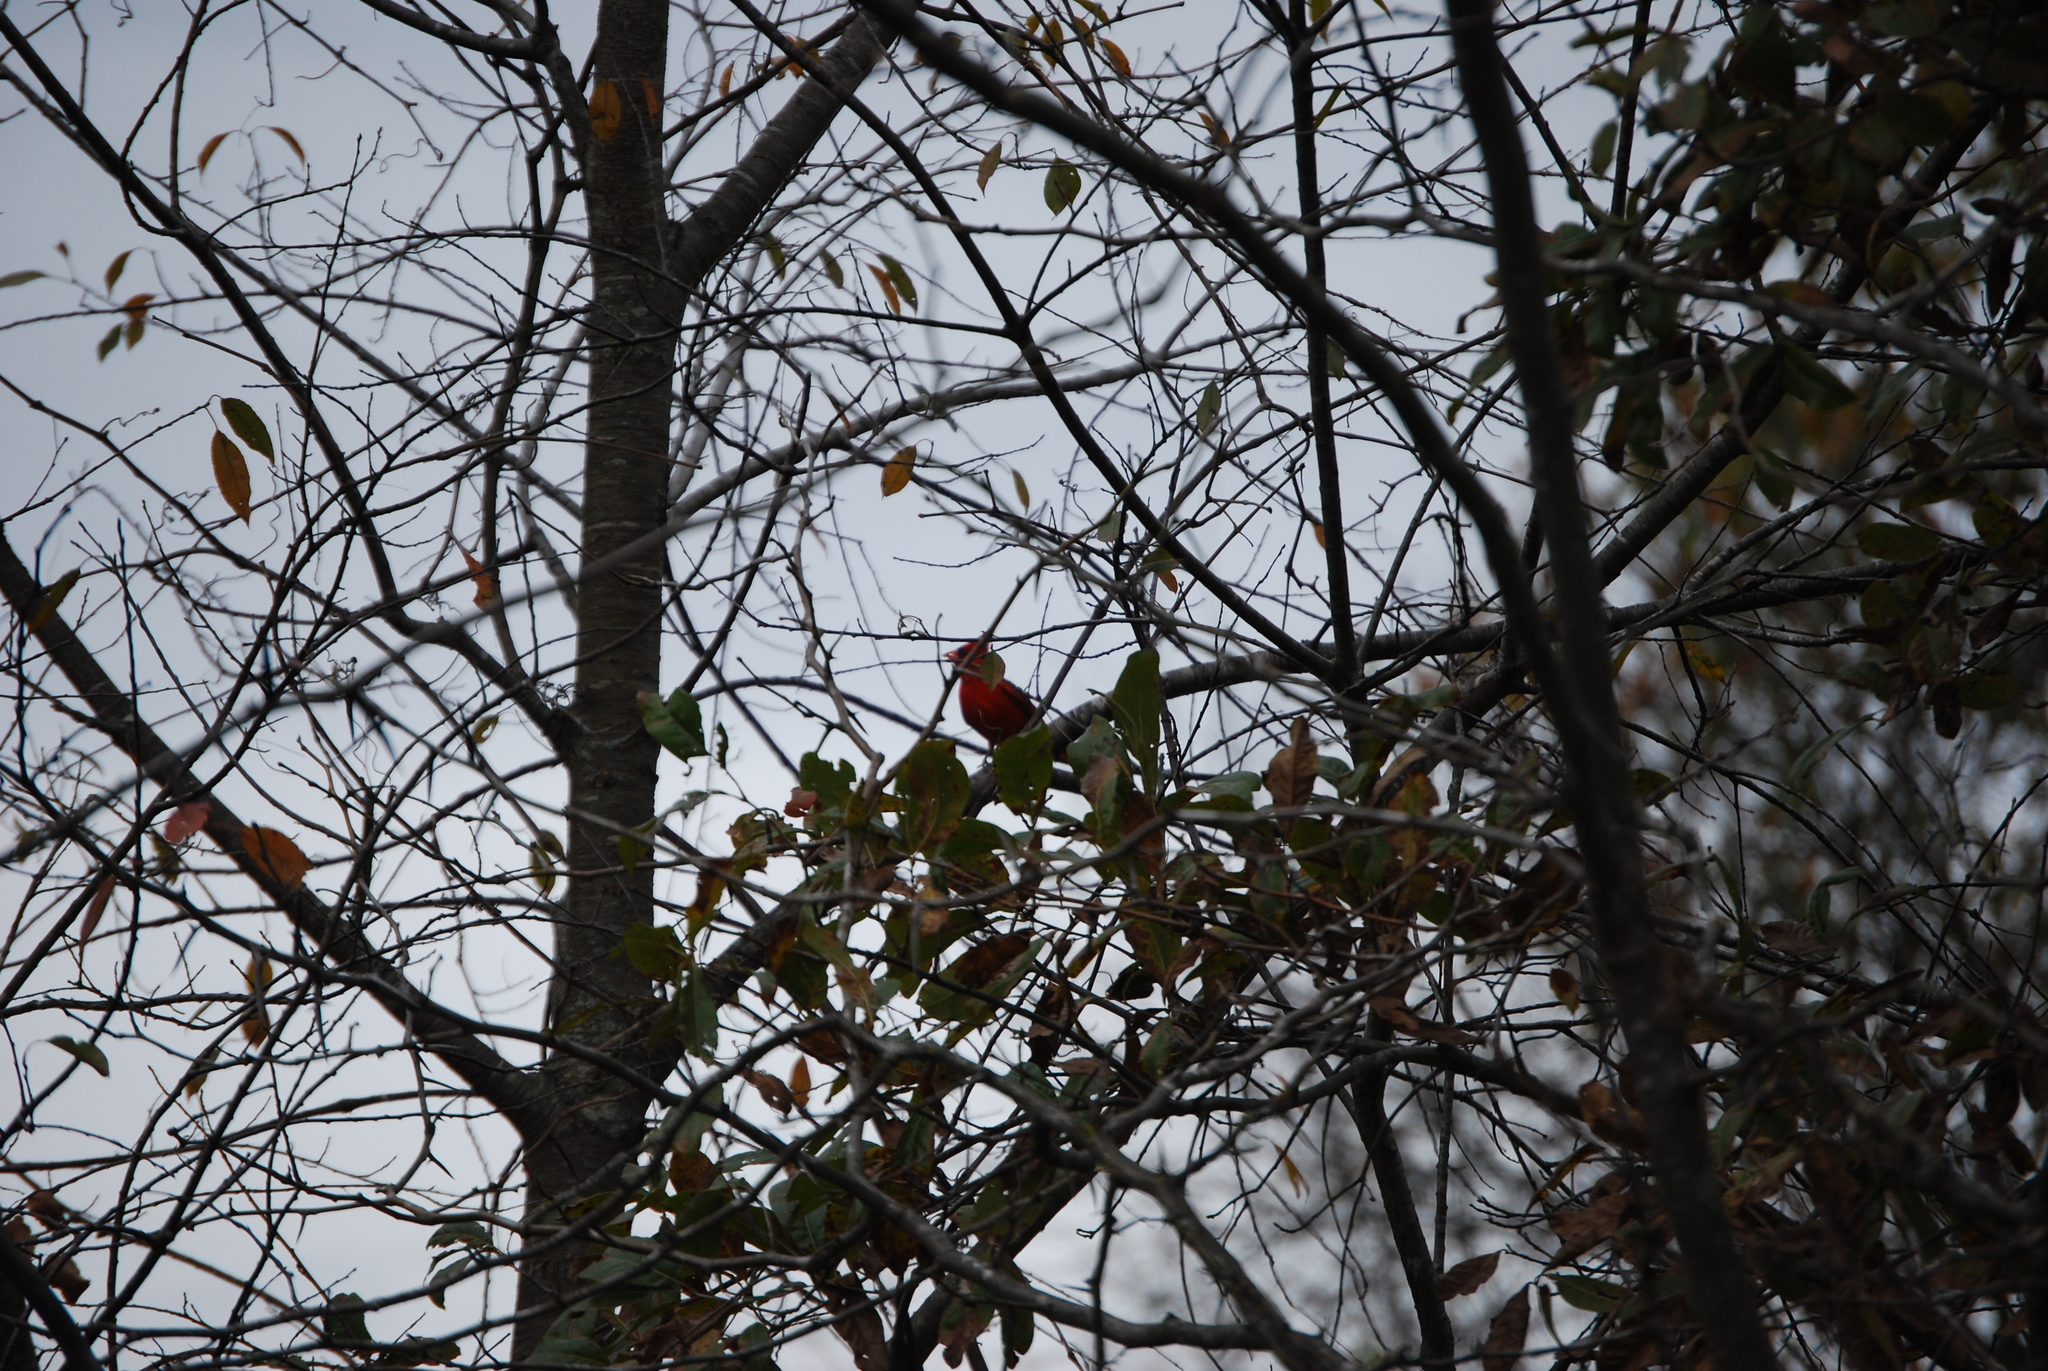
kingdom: Animalia
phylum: Chordata
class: Aves
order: Passeriformes
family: Cardinalidae
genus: Cardinalis
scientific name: Cardinalis cardinalis
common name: Northern cardinal
